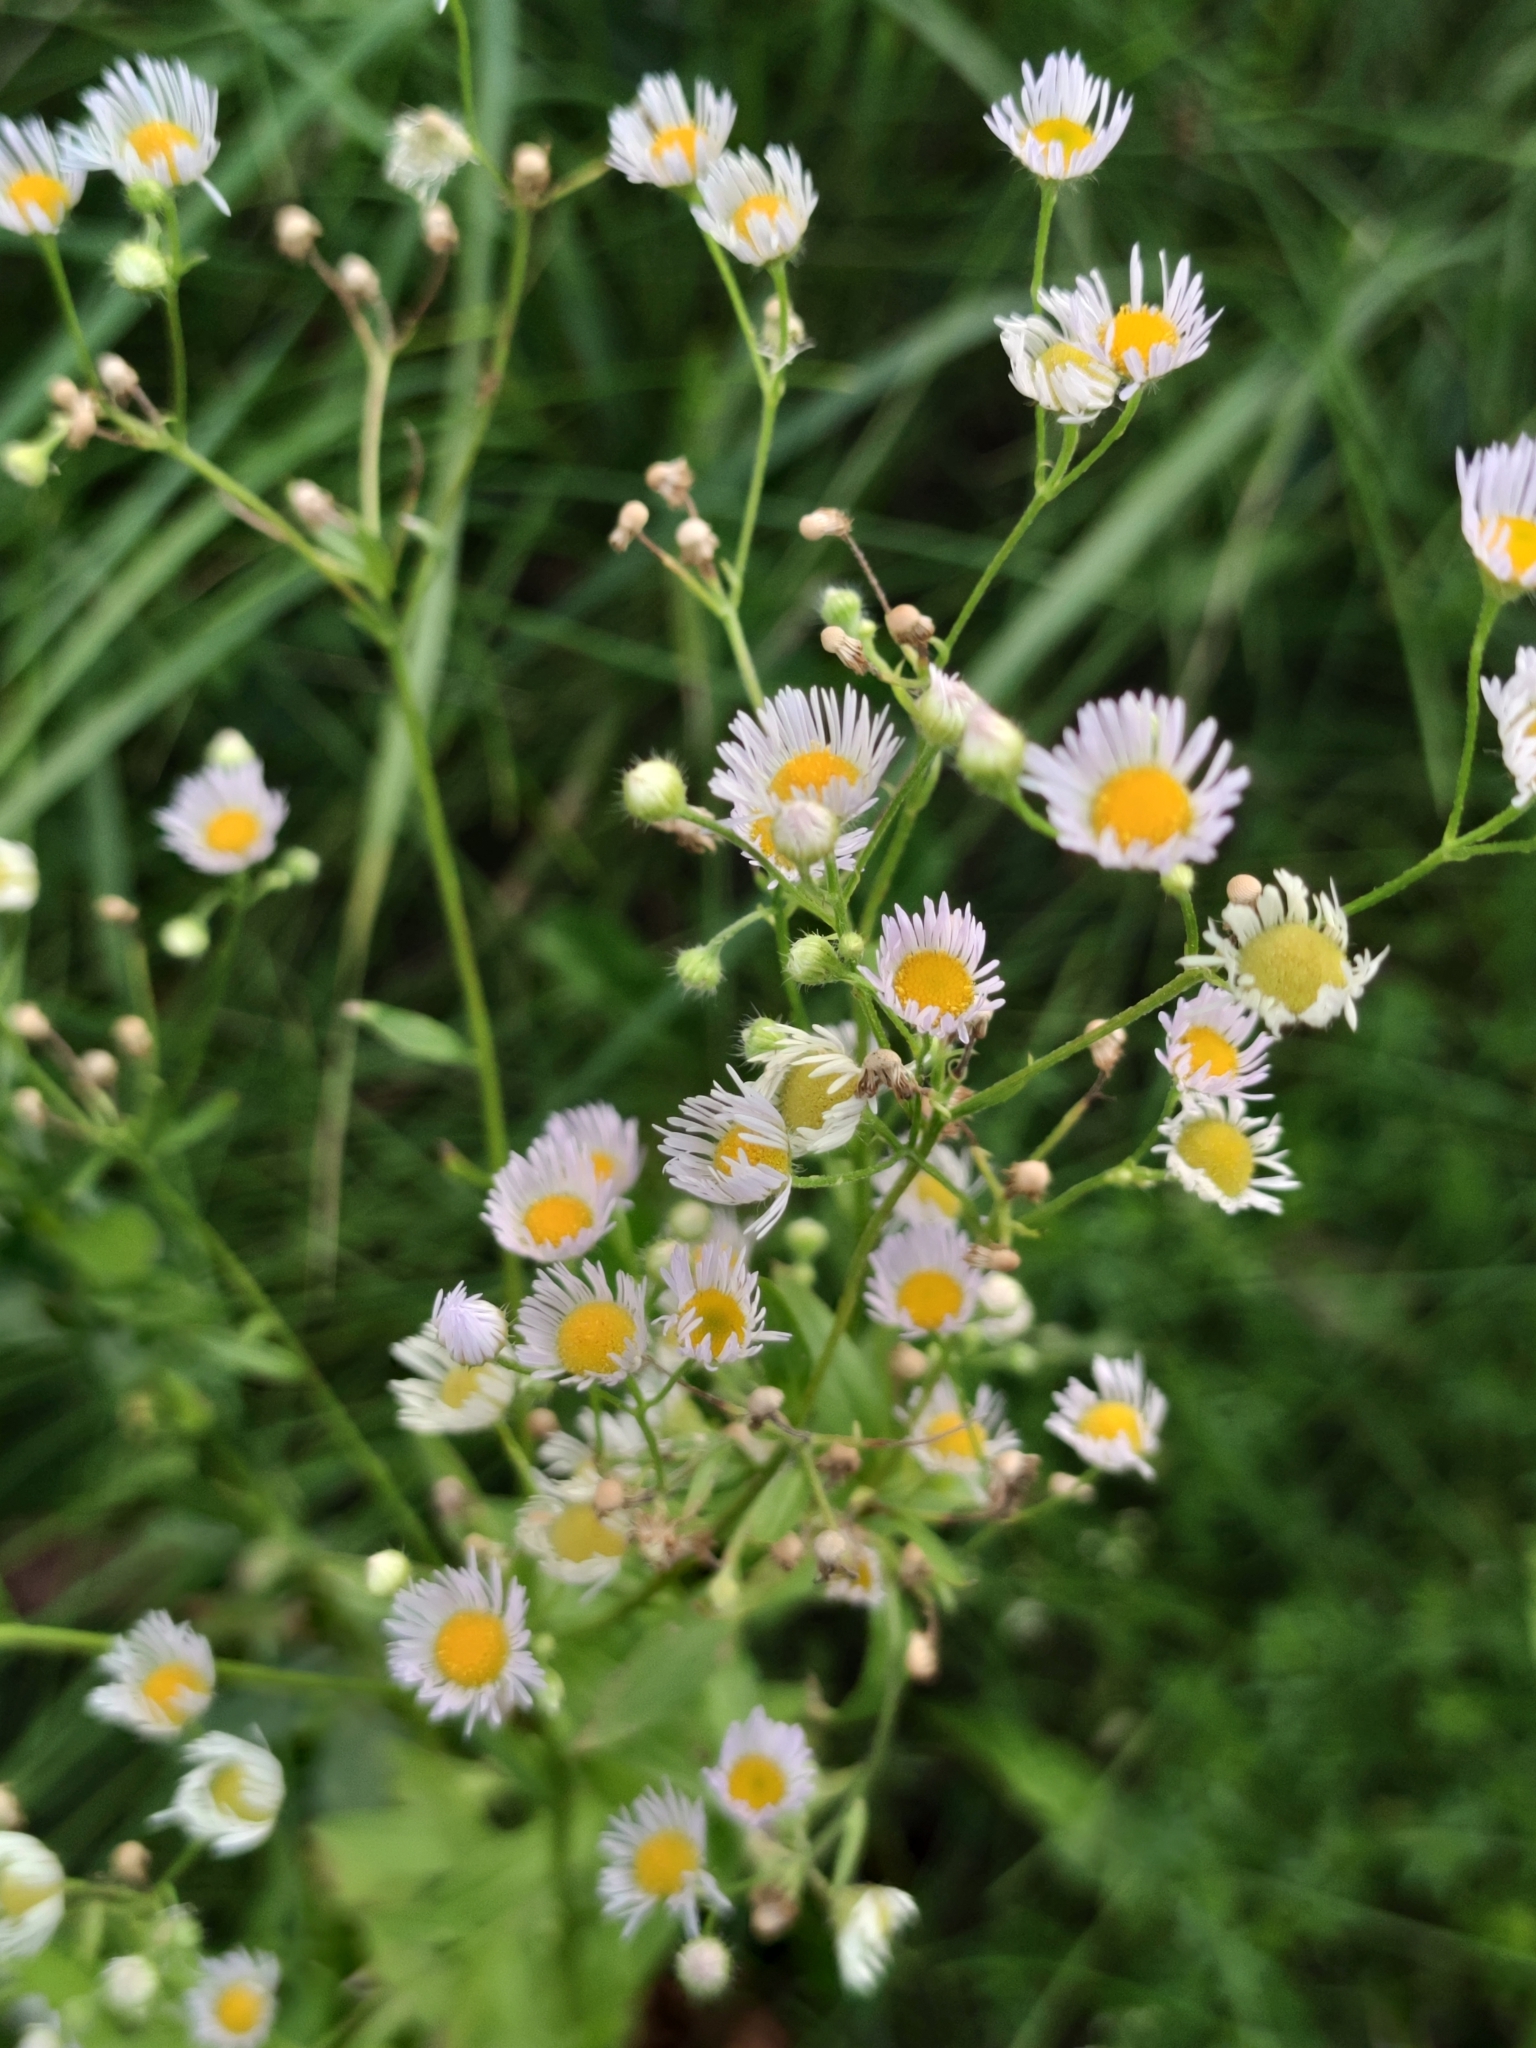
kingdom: Plantae
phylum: Tracheophyta
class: Magnoliopsida
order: Asterales
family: Asteraceae
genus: Erigeron
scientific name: Erigeron annuus
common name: Tall fleabane
